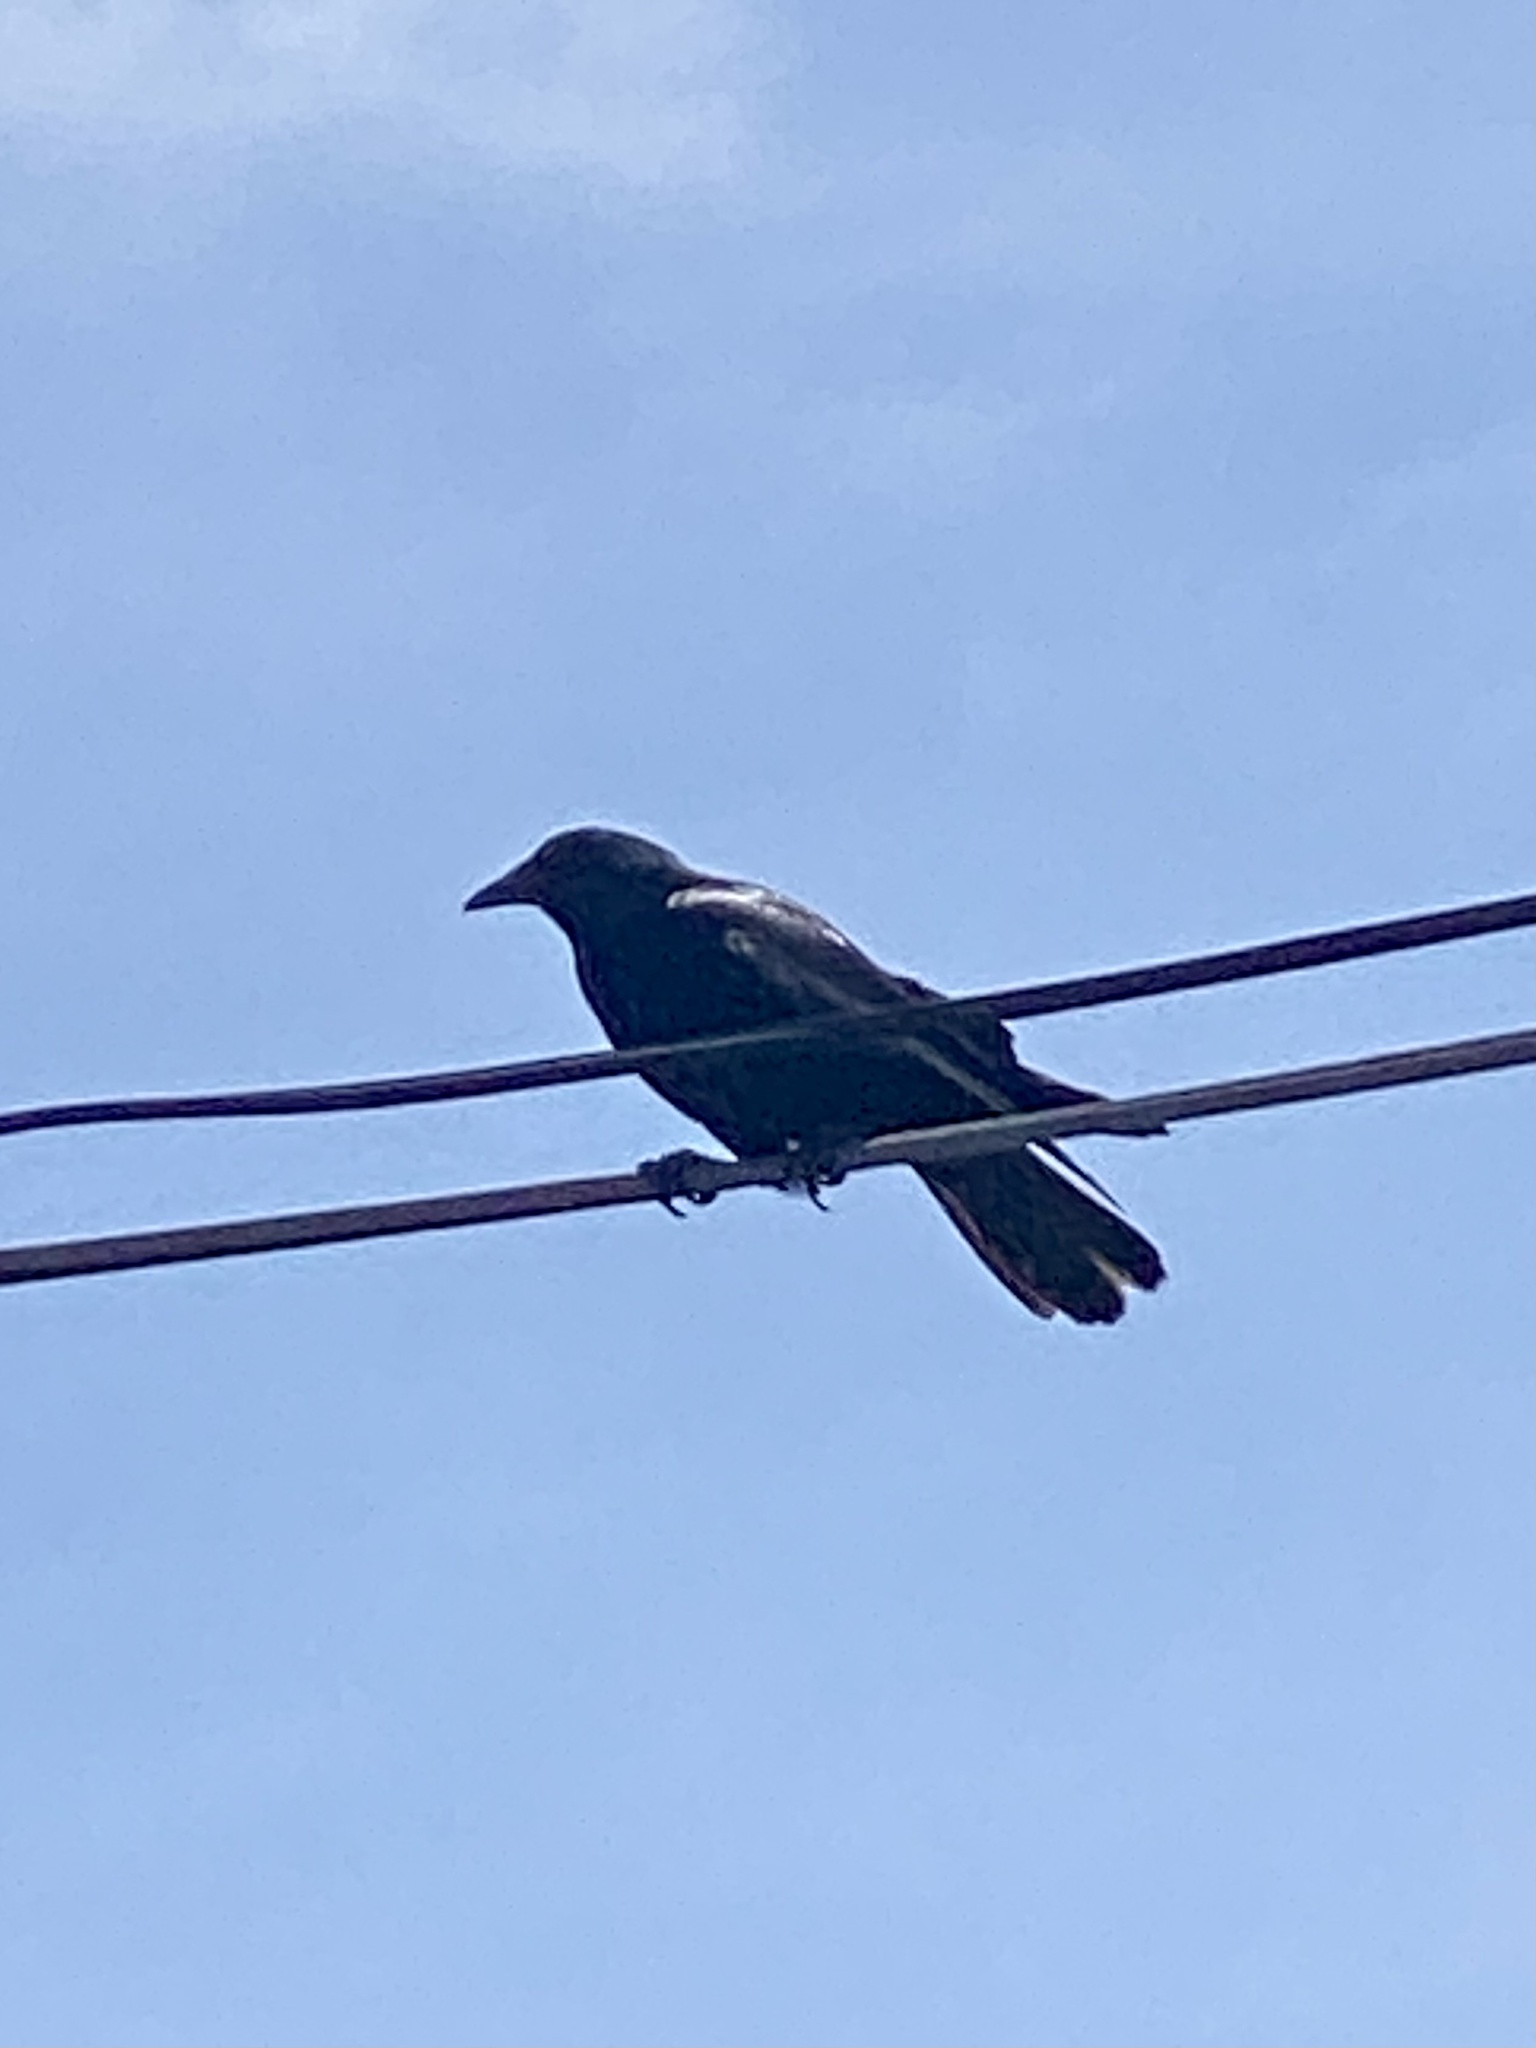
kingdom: Animalia
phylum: Chordata
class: Aves
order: Passeriformes
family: Corvidae
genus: Corvus
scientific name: Corvus ossifragus
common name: Fish crow
